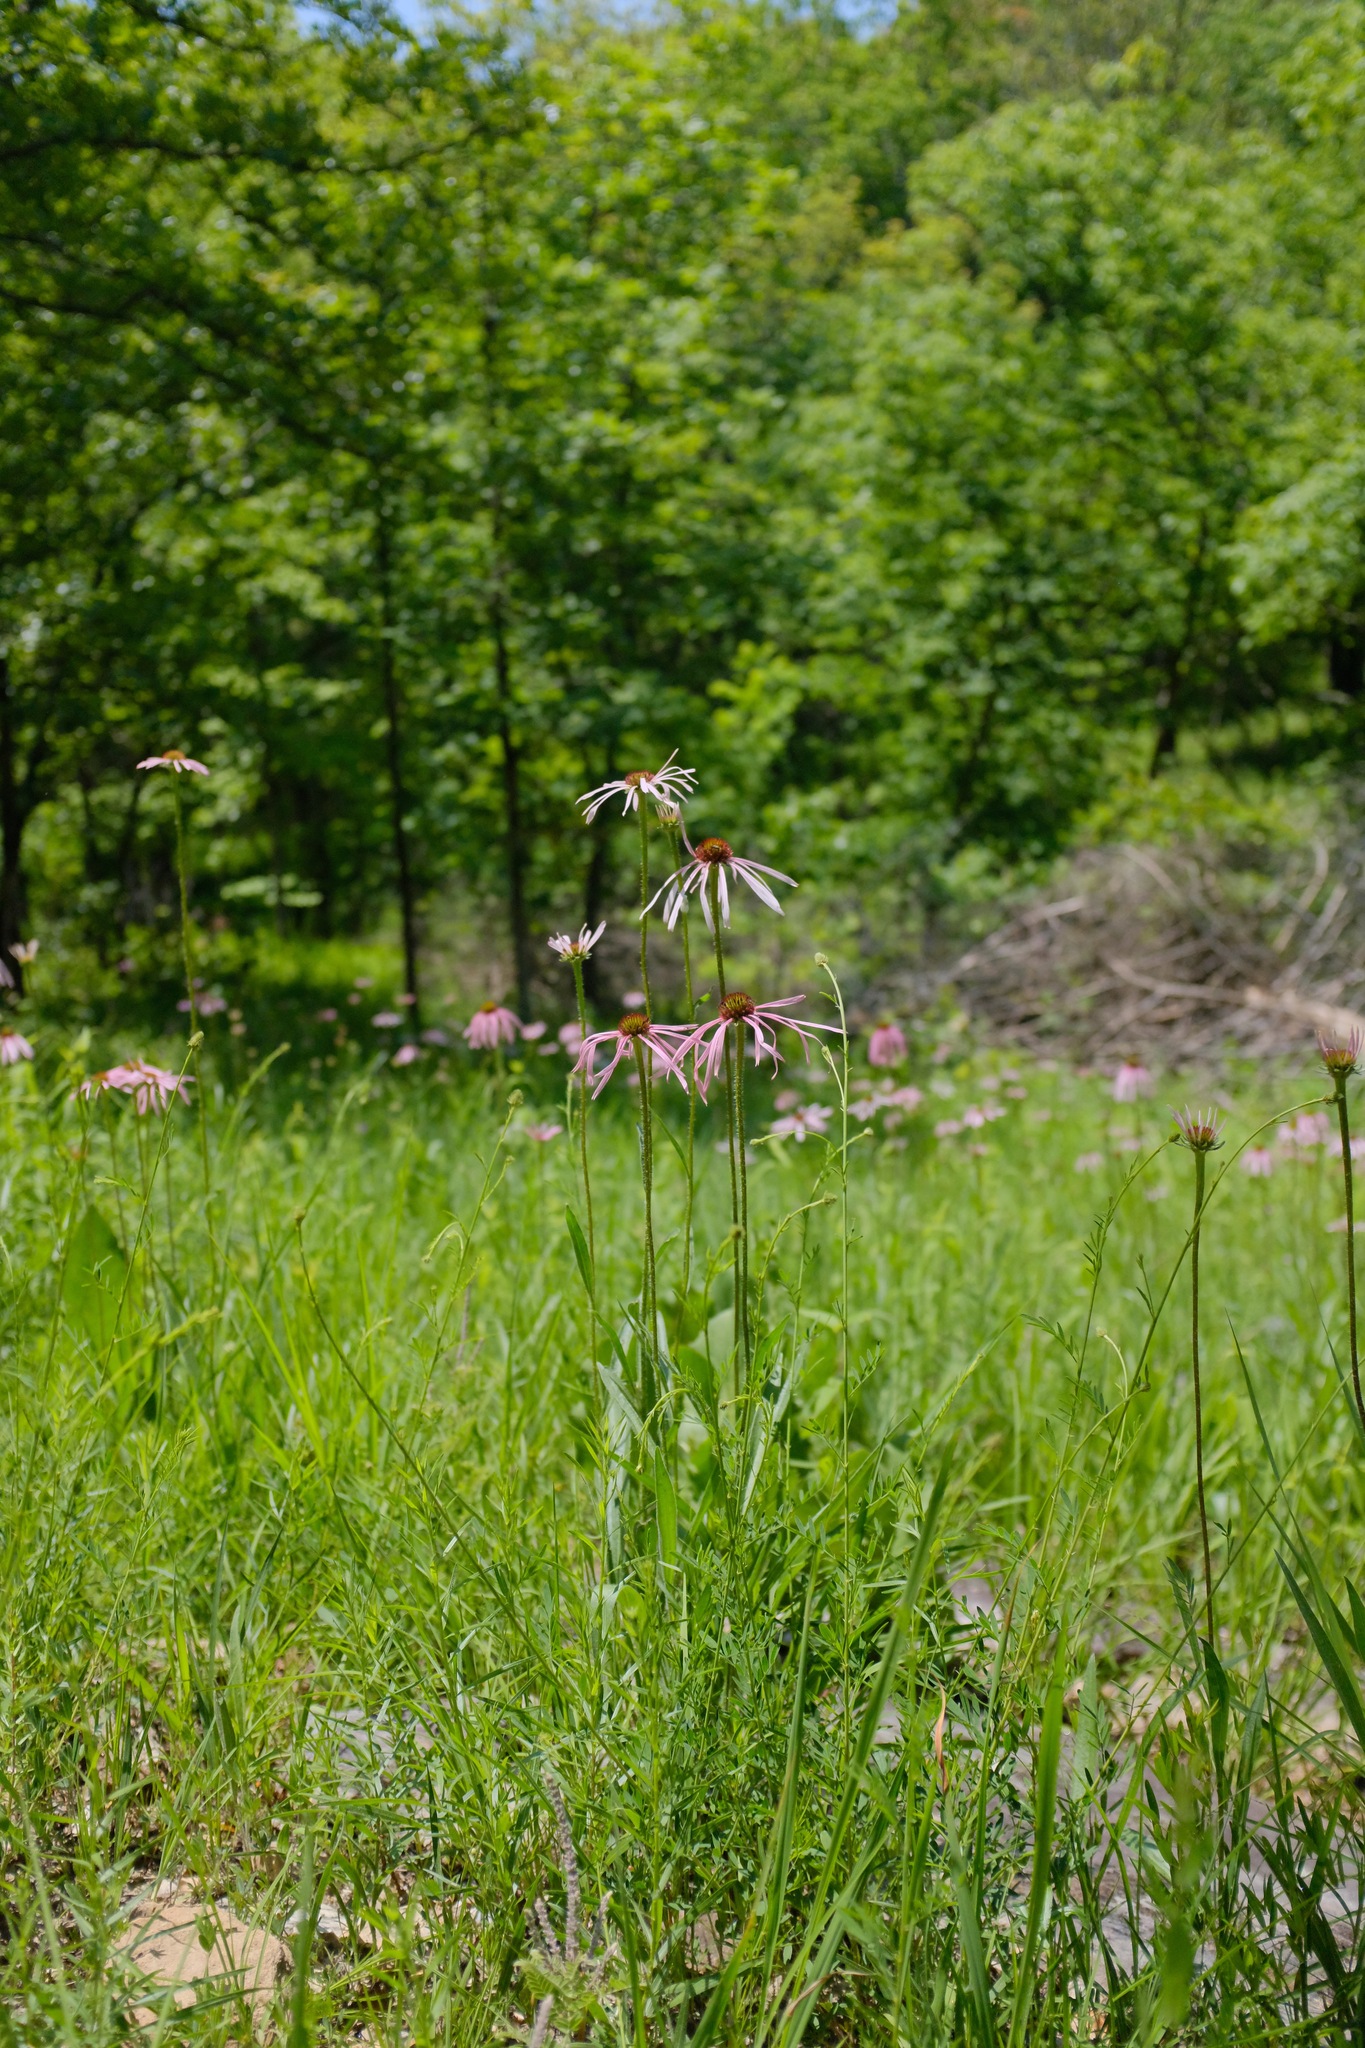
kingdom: Plantae
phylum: Tracheophyta
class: Magnoliopsida
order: Asterales
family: Asteraceae
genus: Echinacea
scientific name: Echinacea pallida
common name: Pale echinacea
